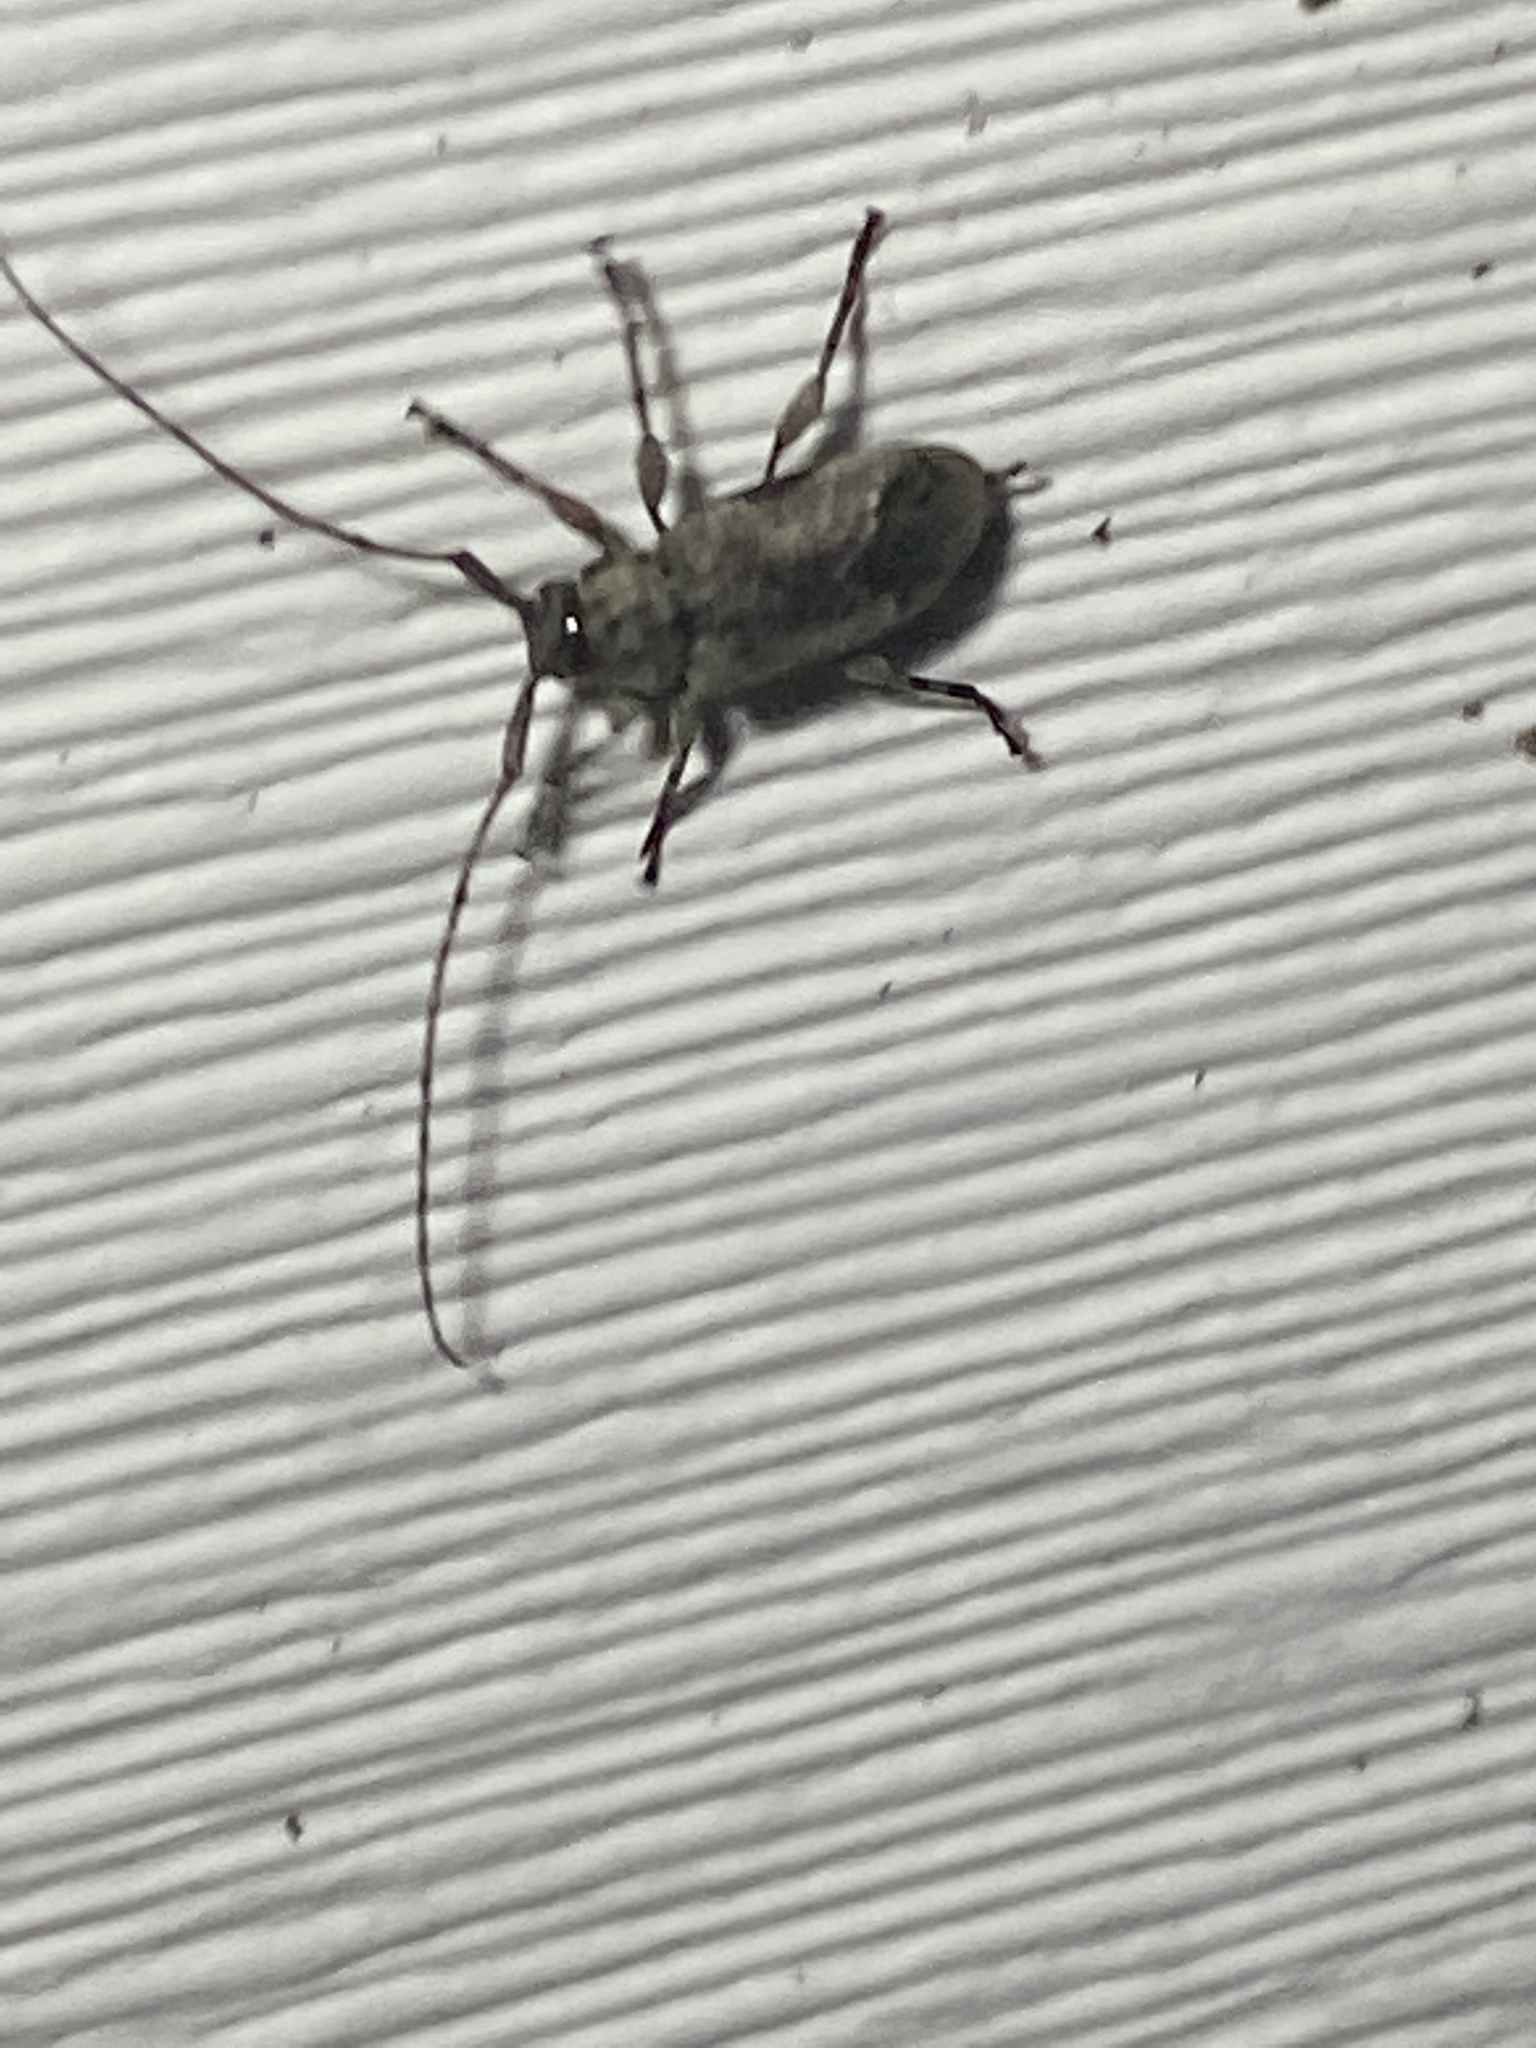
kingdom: Animalia
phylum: Arthropoda
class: Insecta
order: Coleoptera
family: Cerambycidae
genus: Styloleptus
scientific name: Styloleptus biustus
